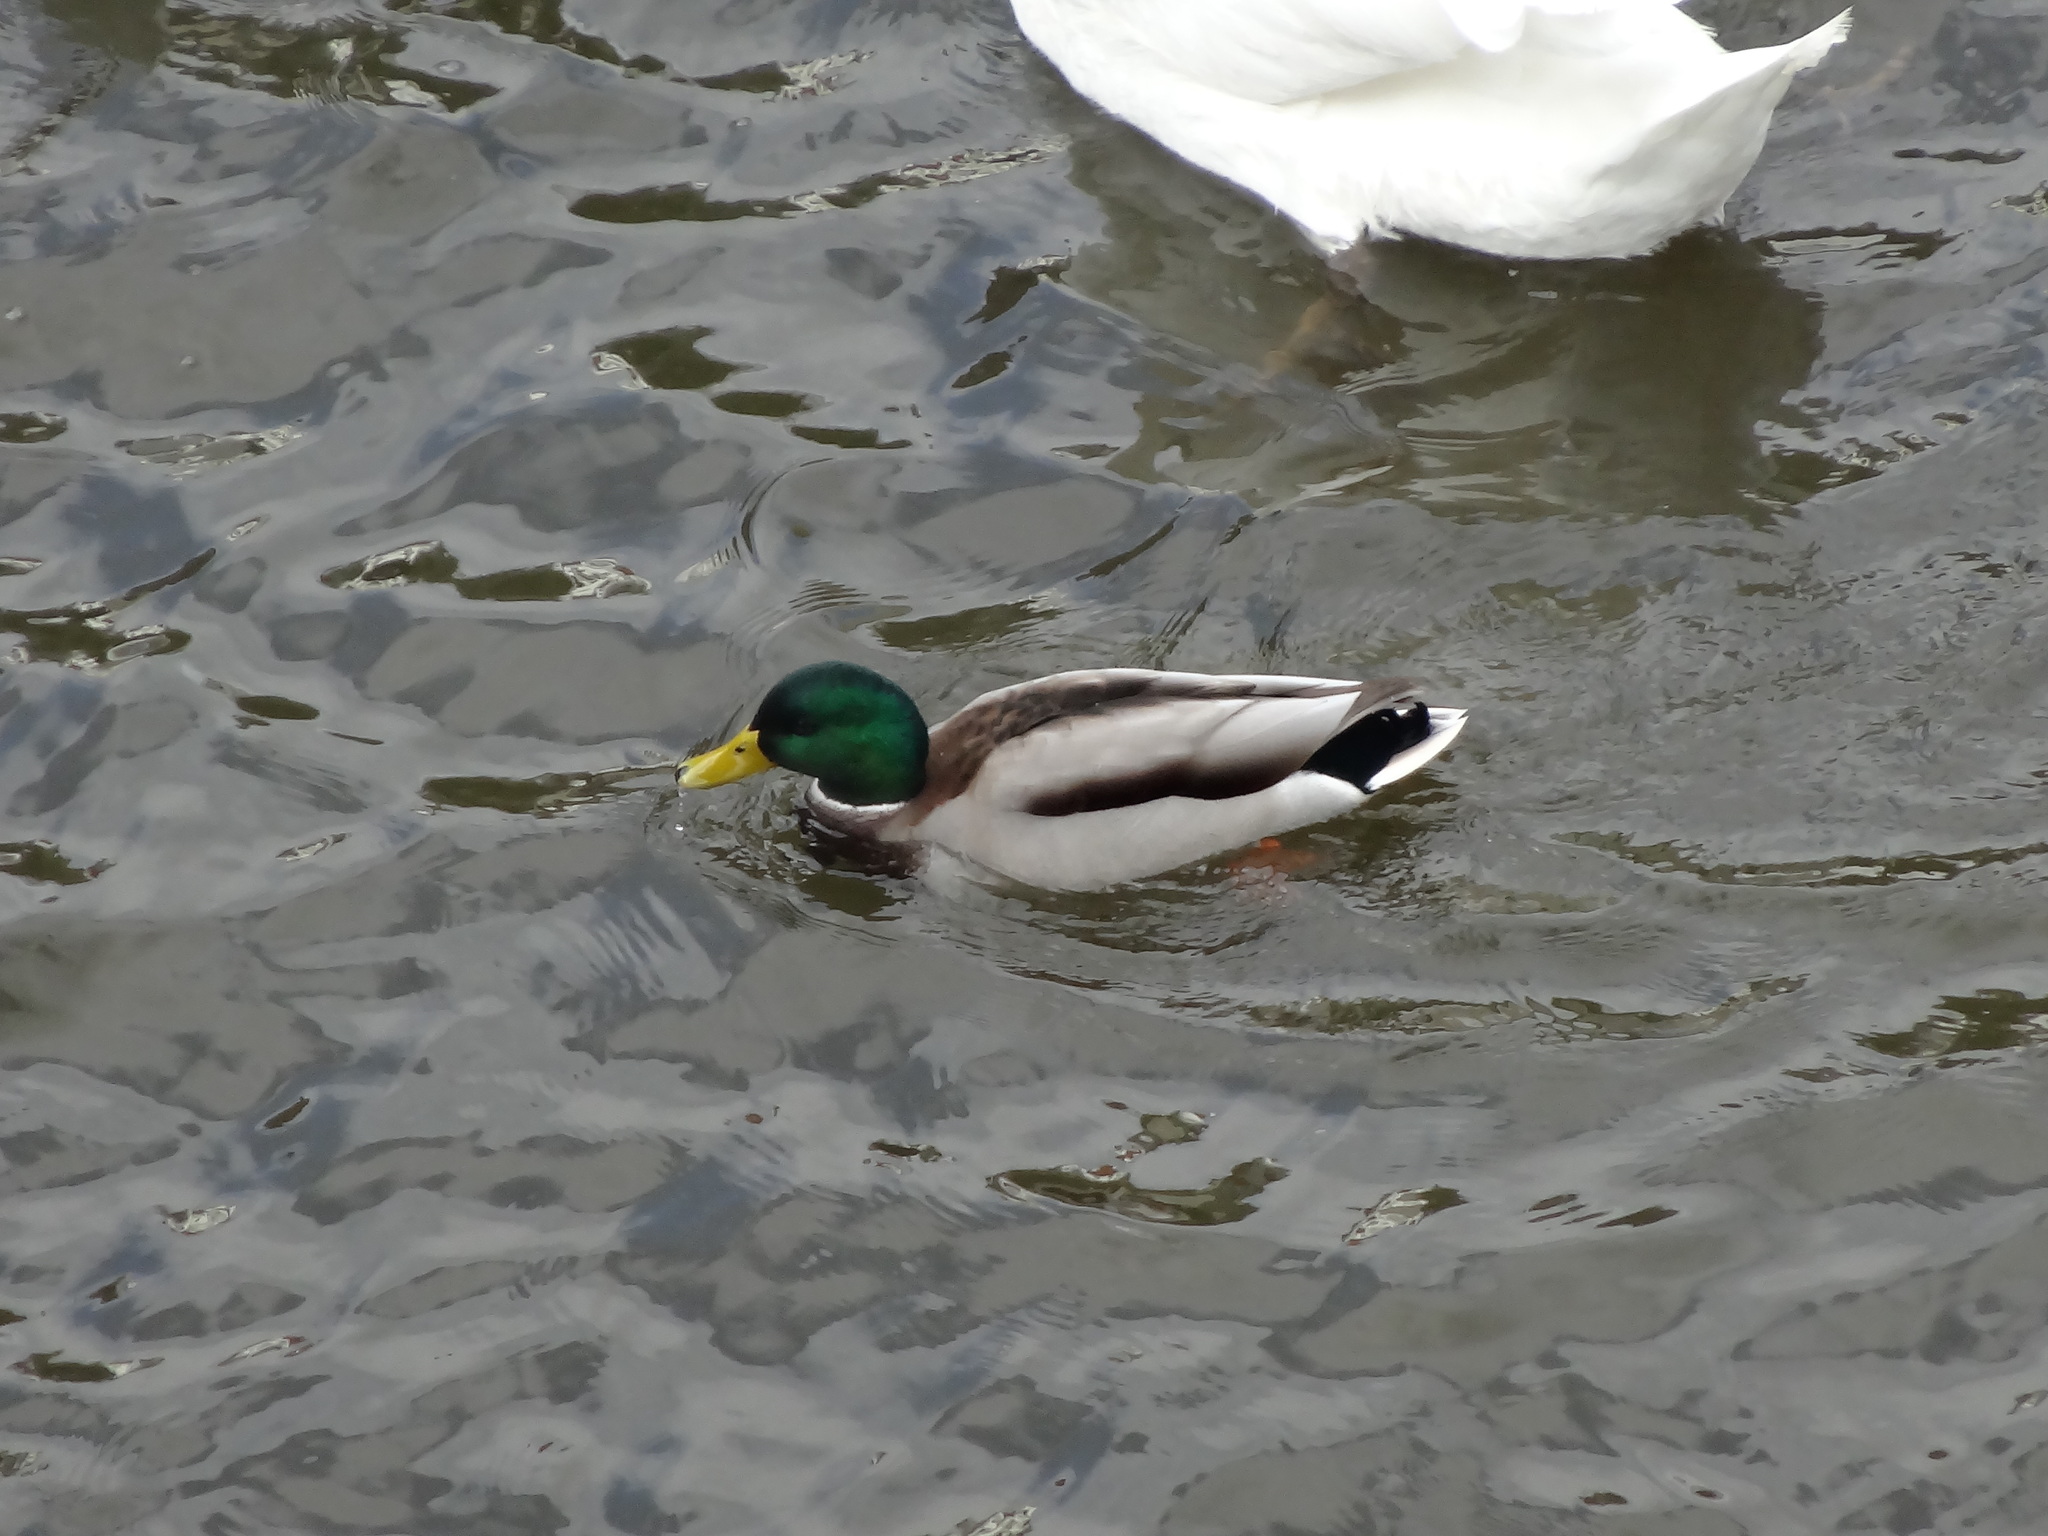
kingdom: Animalia
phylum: Chordata
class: Aves
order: Anseriformes
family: Anatidae
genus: Anas
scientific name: Anas platyrhynchos
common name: Mallard
